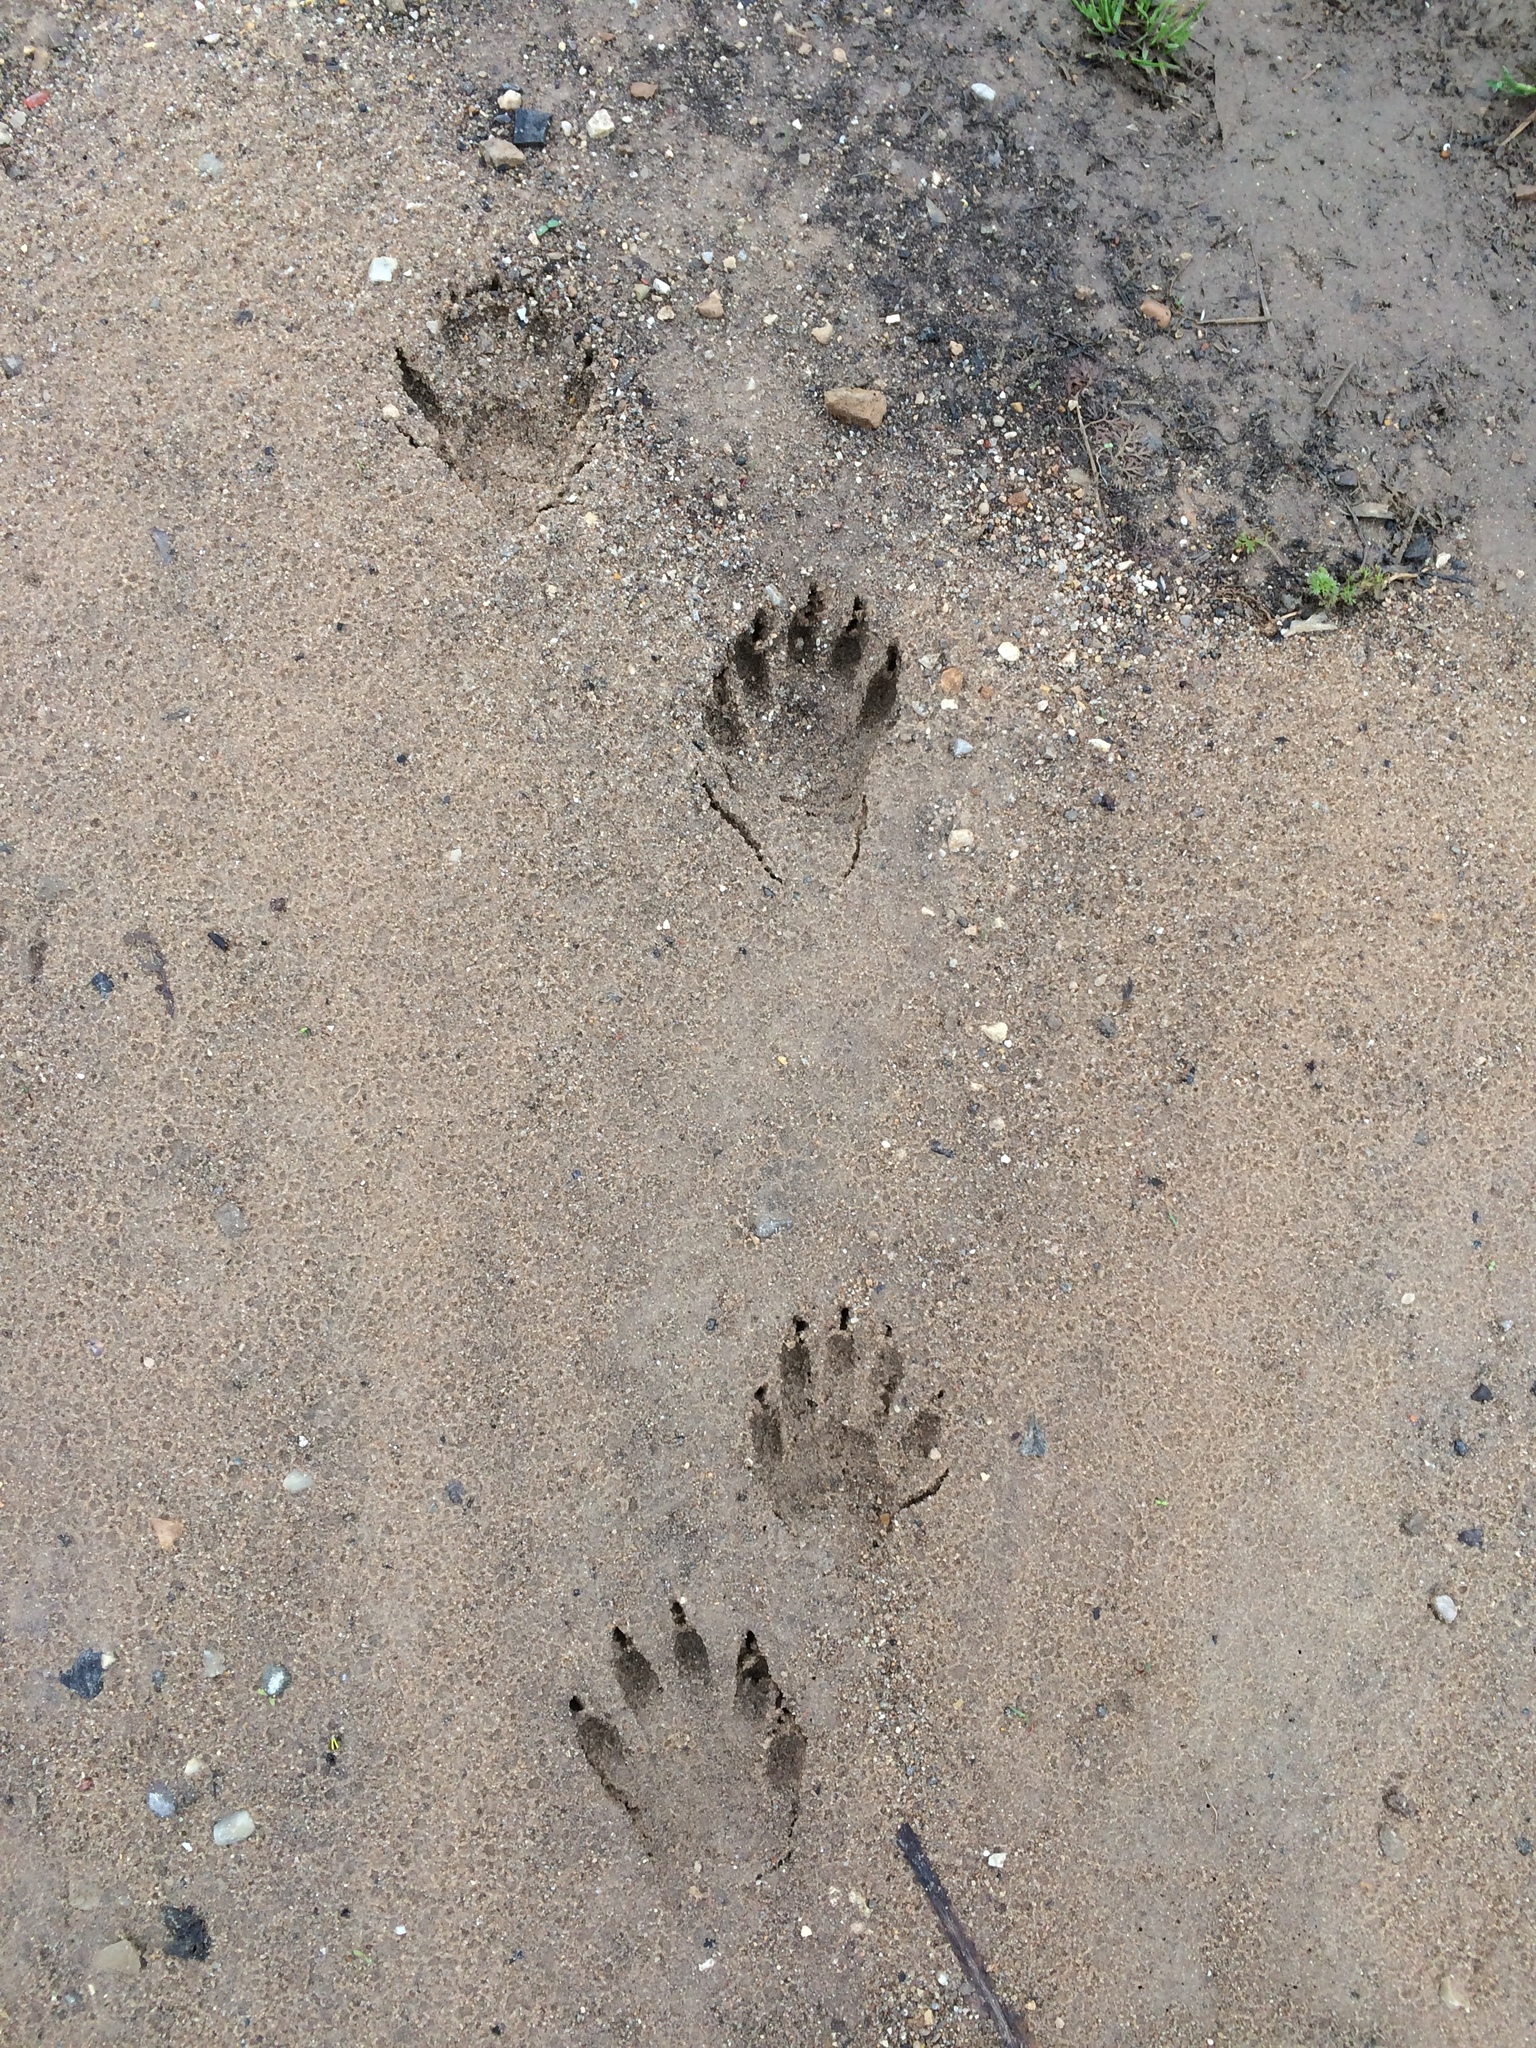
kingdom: Animalia
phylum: Chordata
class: Mammalia
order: Carnivora
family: Procyonidae
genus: Procyon
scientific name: Procyon lotor
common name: Raccoon
